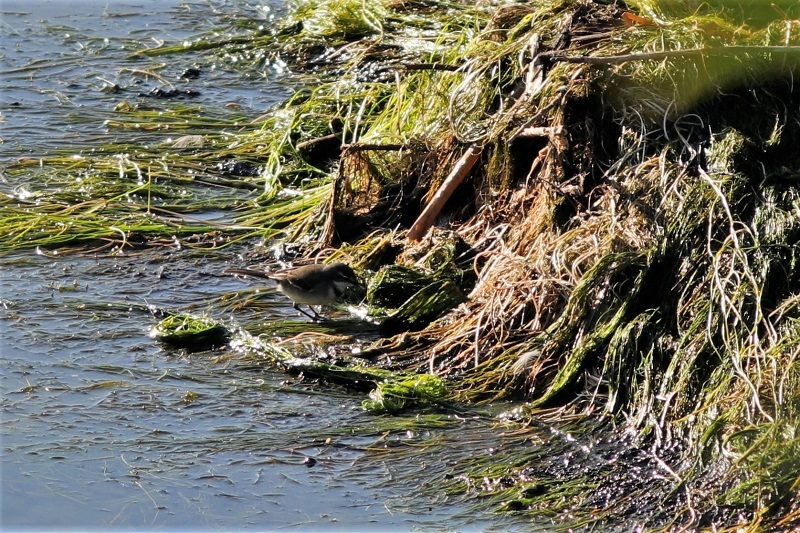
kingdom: Animalia
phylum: Chordata
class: Aves
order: Passeriformes
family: Motacillidae
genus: Motacilla
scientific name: Motacilla capensis
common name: Cape wagtail
